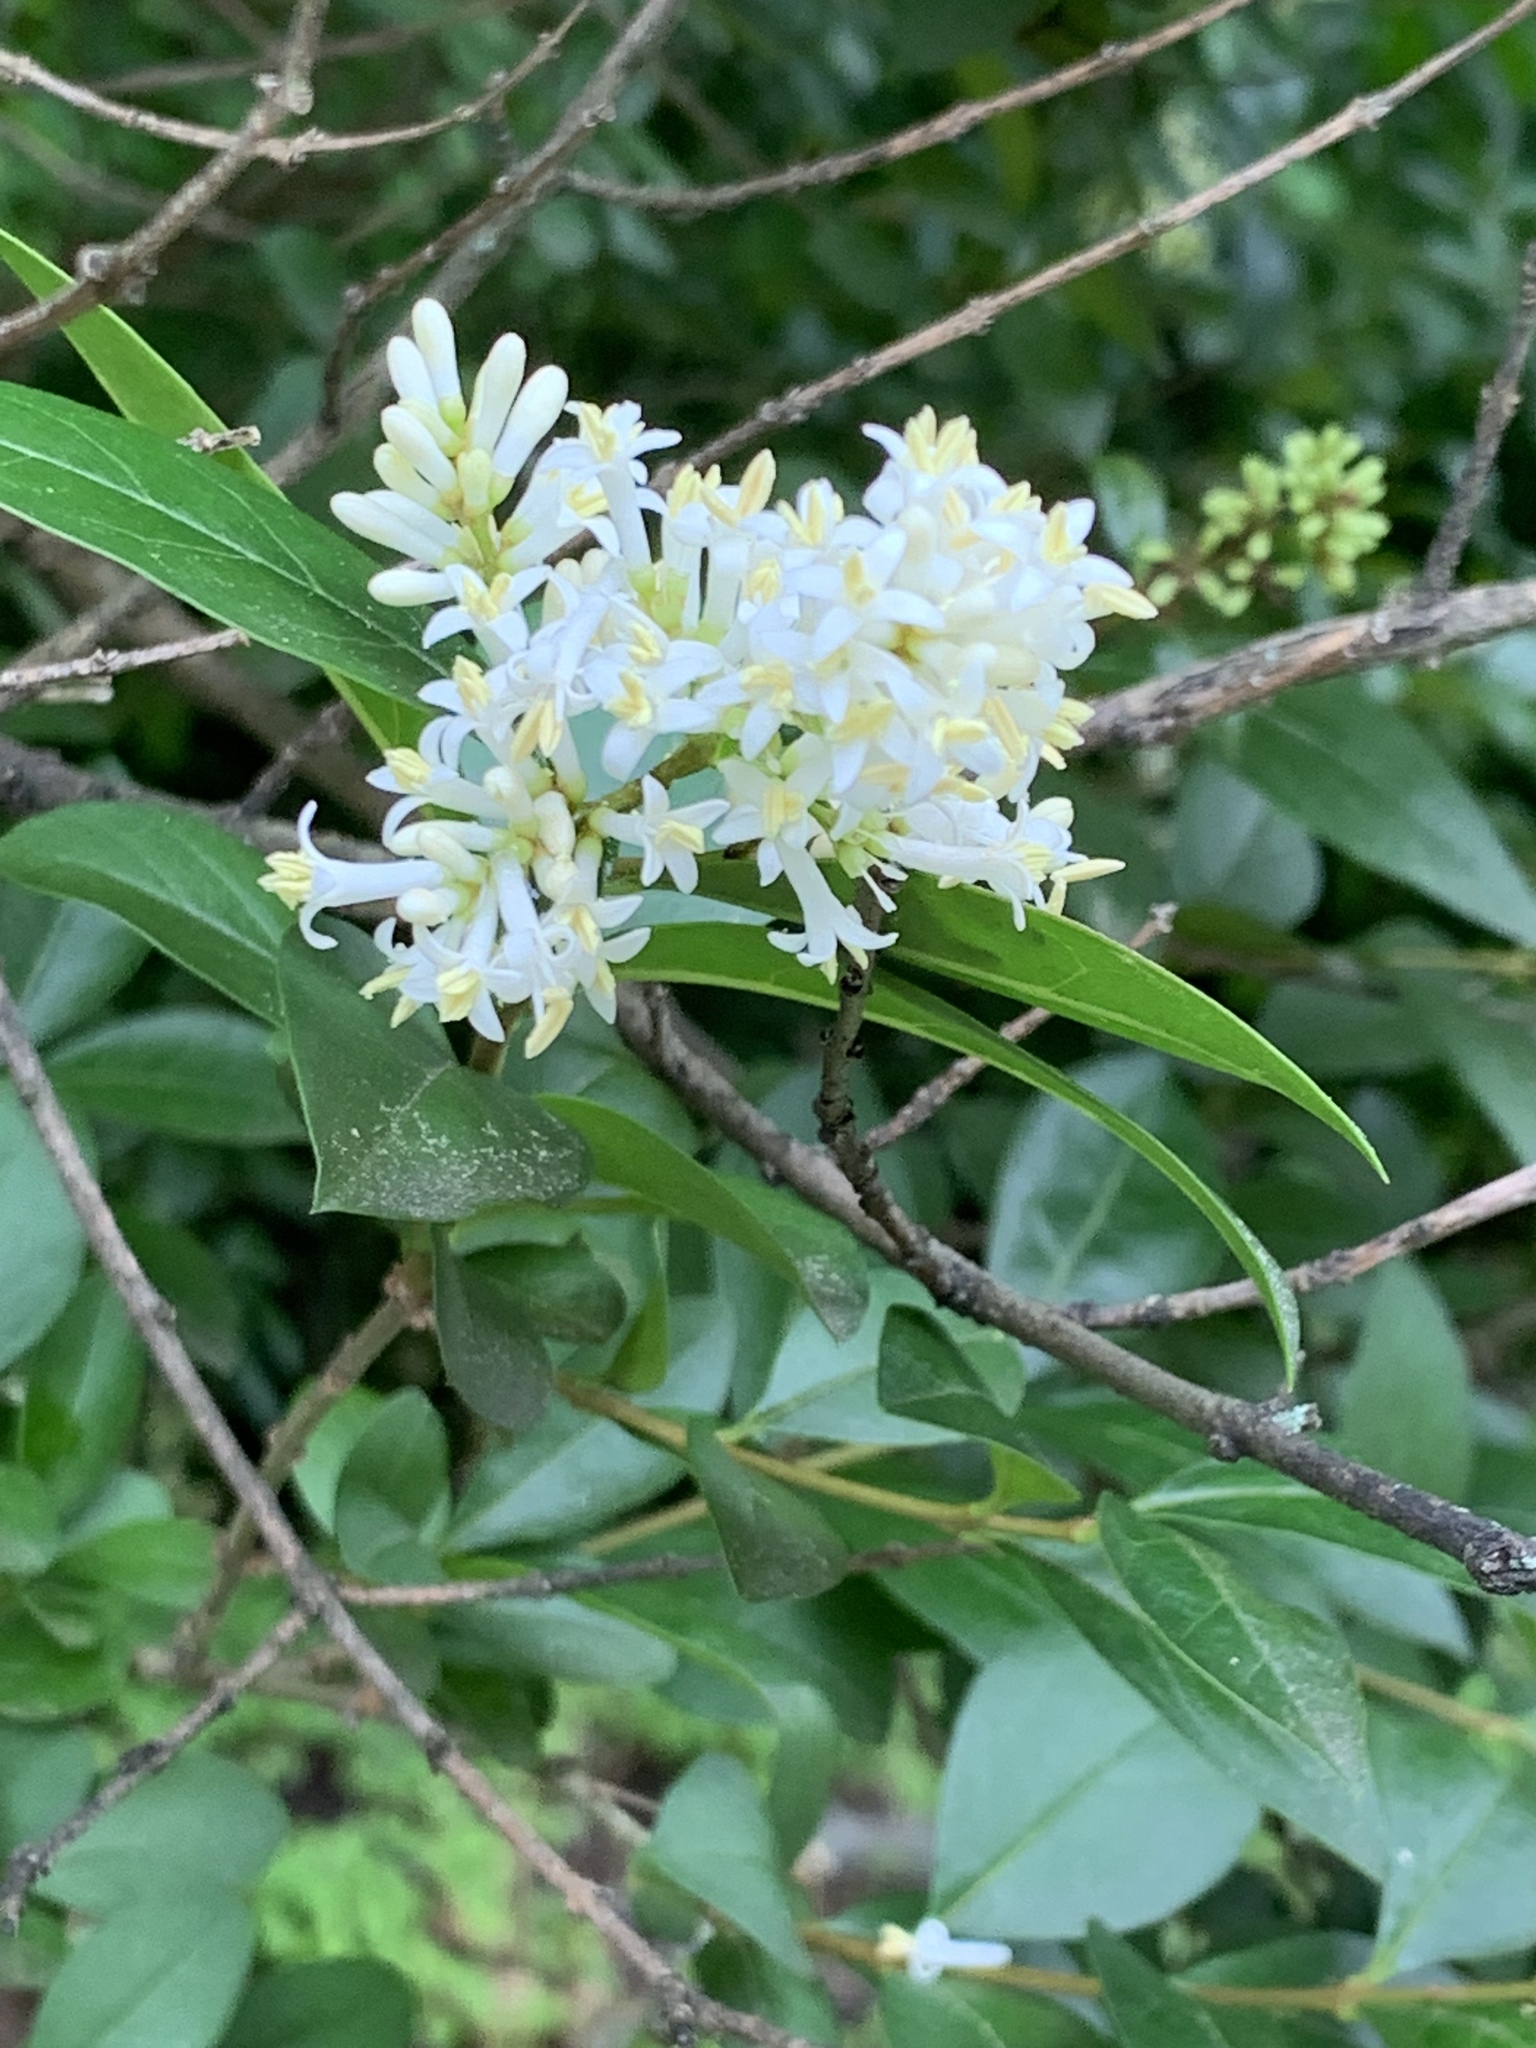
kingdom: Plantae
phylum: Tracheophyta
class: Magnoliopsida
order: Lamiales
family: Oleaceae
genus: Ligustrum
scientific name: Ligustrum ovalifolium
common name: California privet
